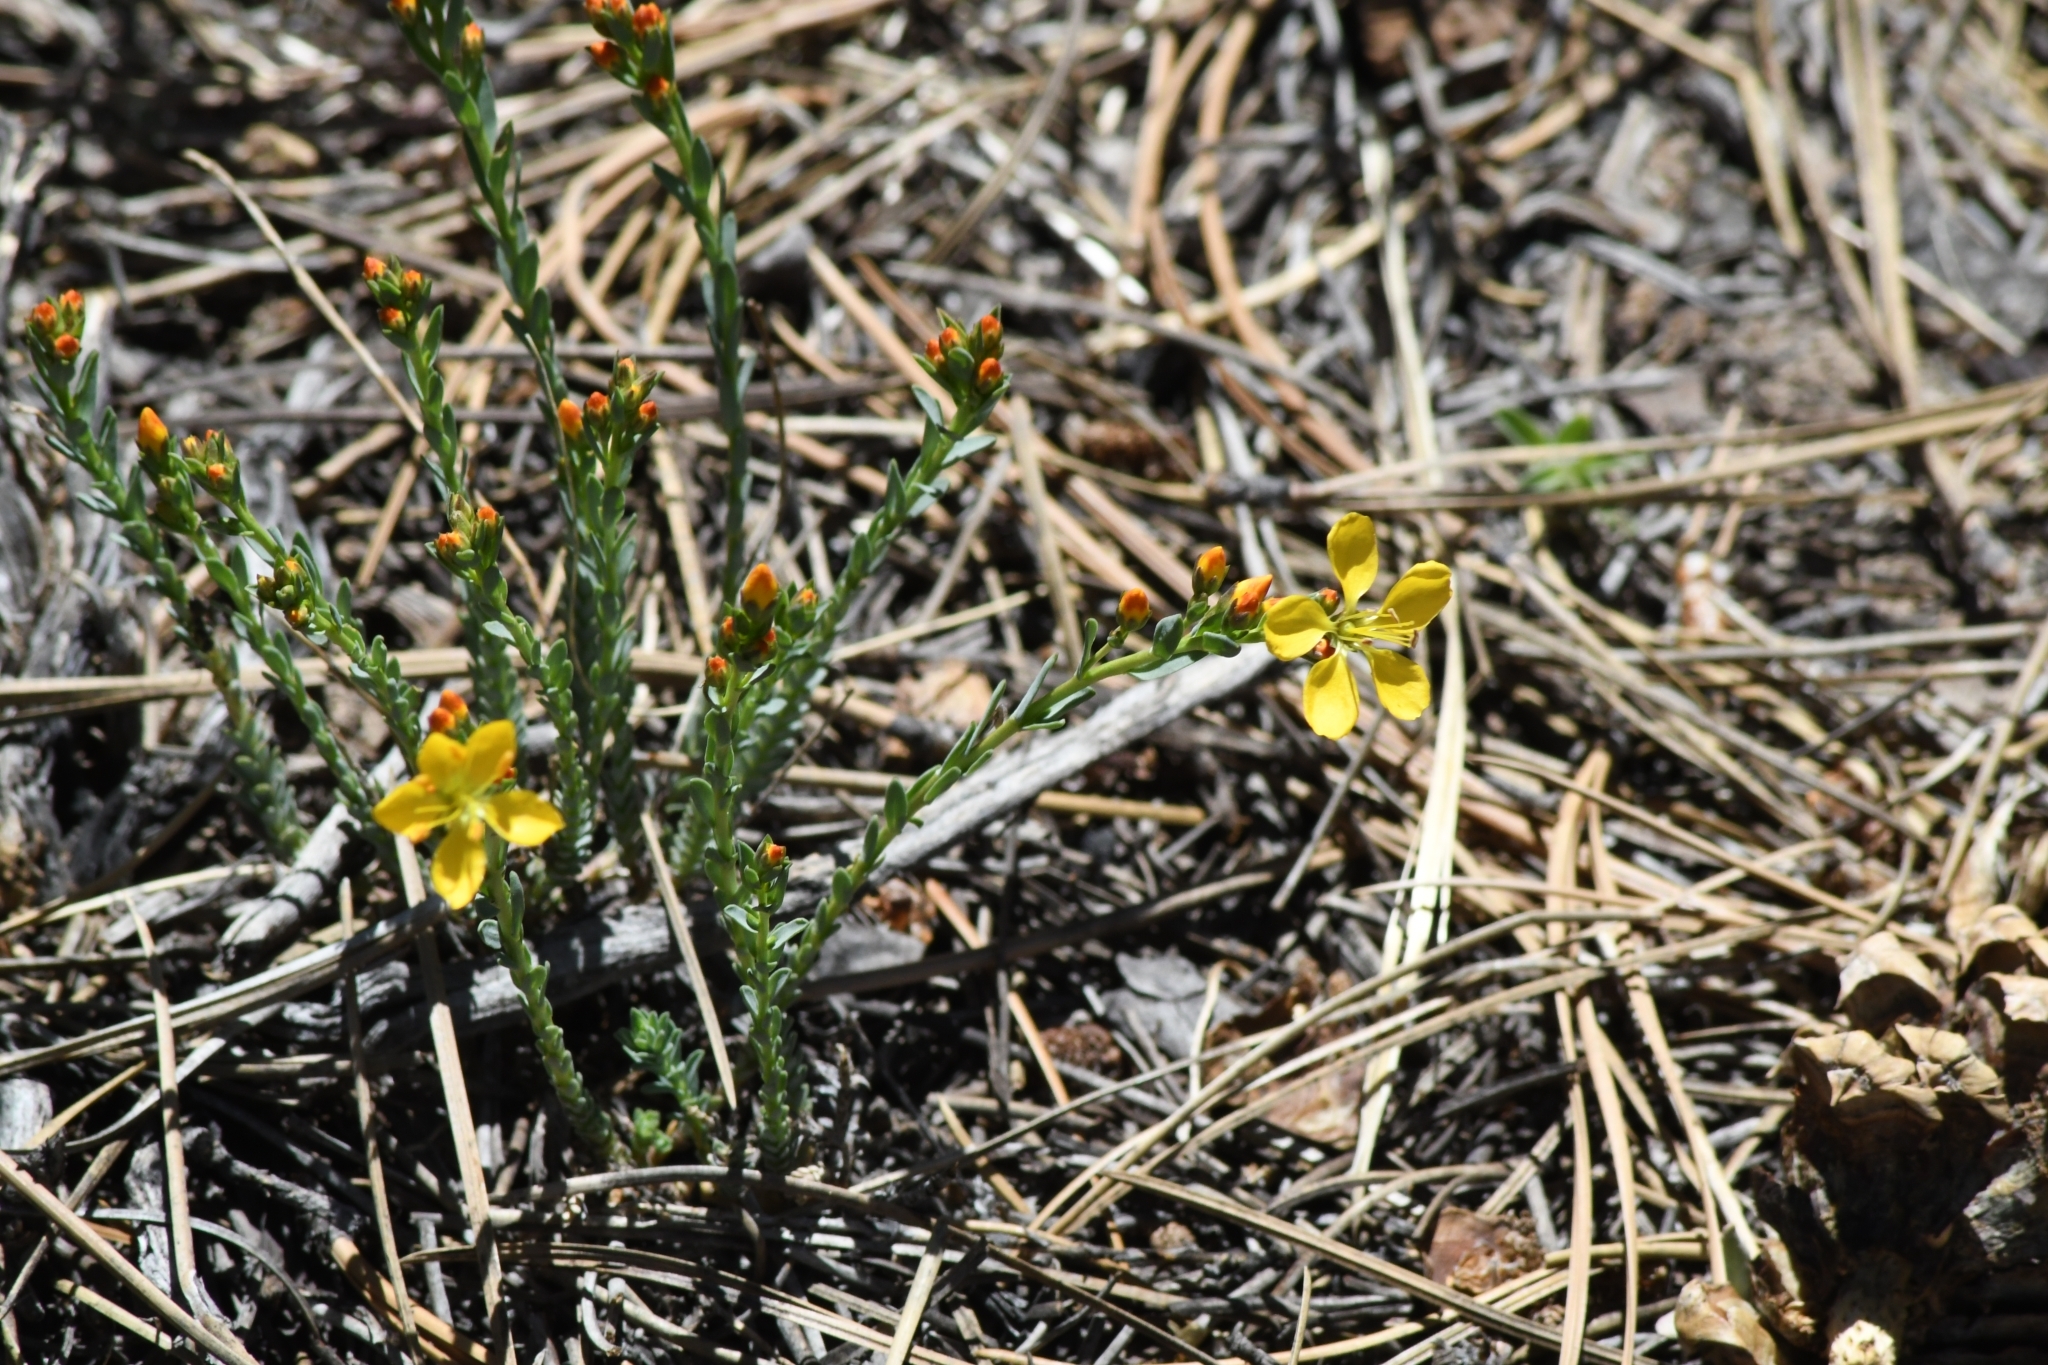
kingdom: Plantae
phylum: Tracheophyta
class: Magnoliopsida
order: Malpighiales
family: Linaceae
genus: Linum
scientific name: Linum kingii
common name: King's yellow flax
